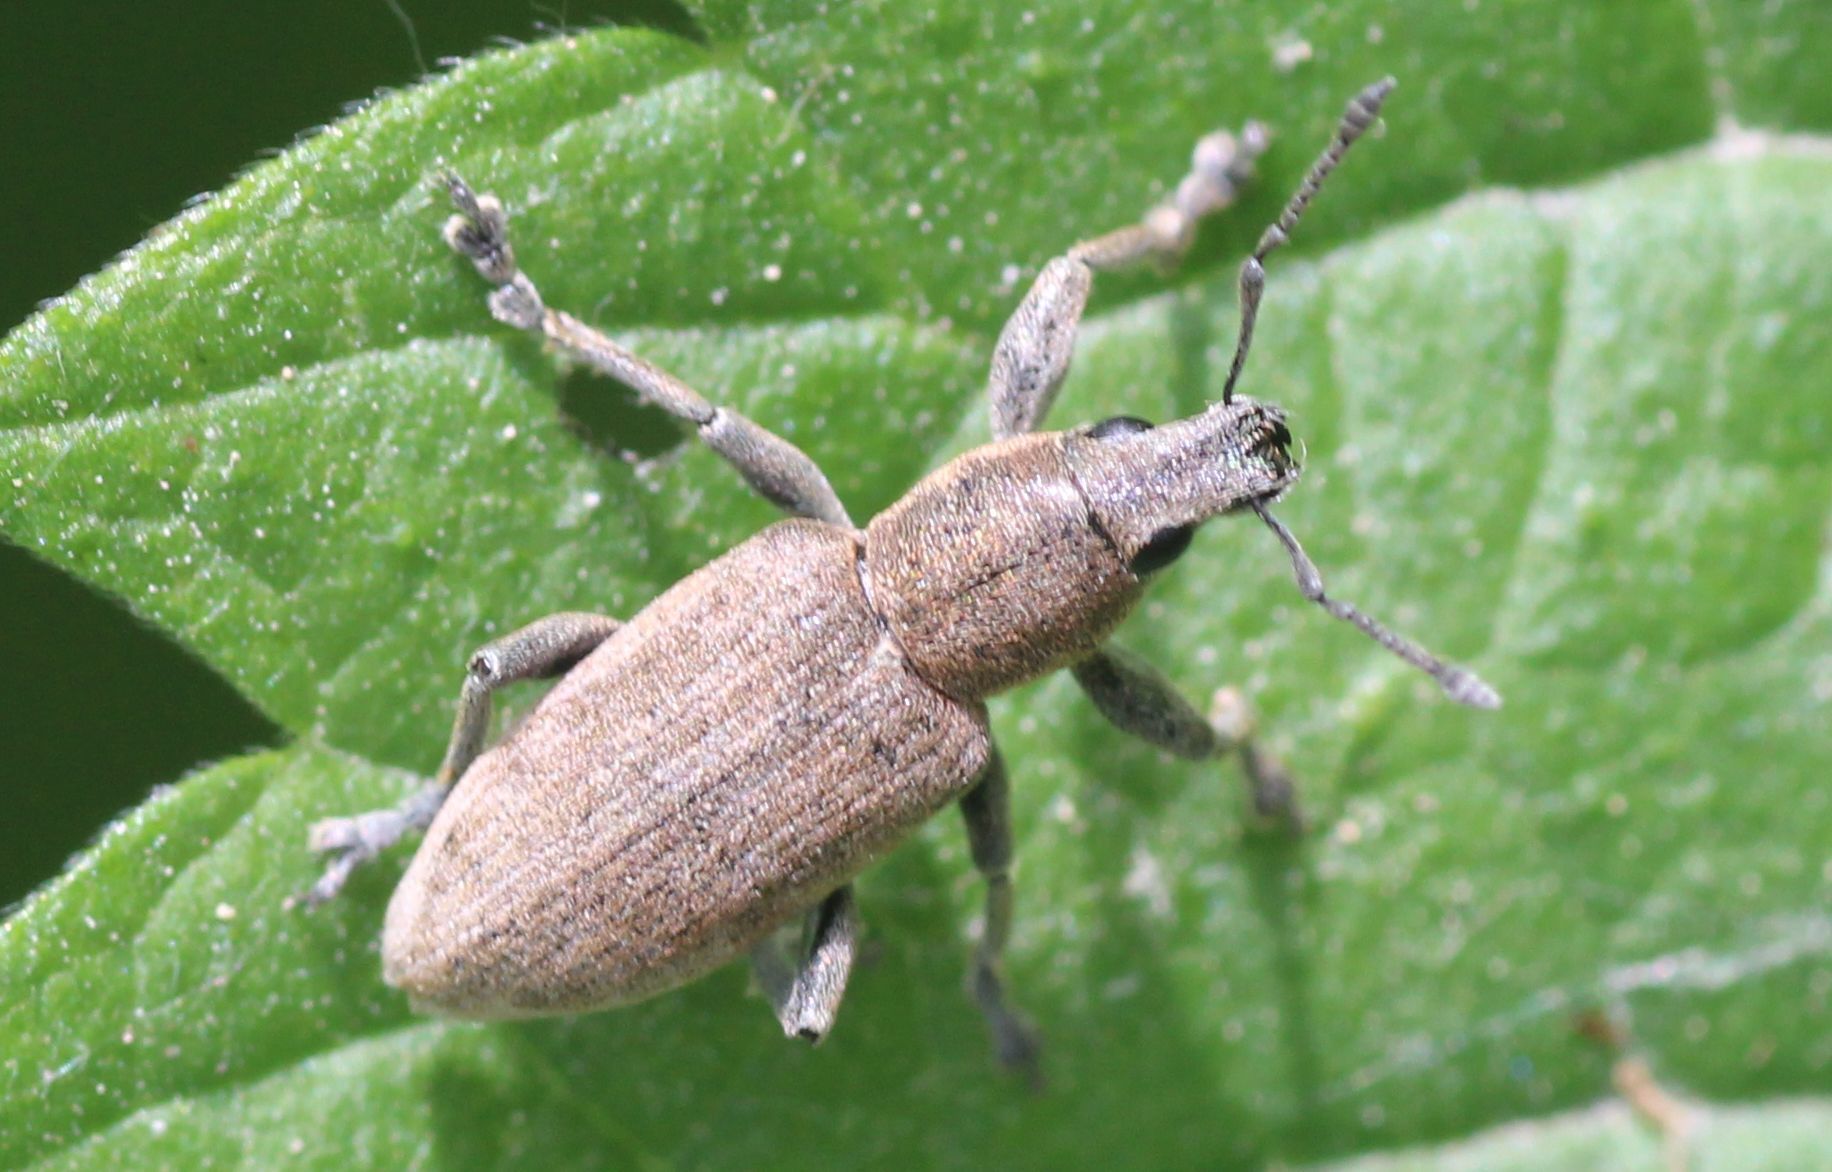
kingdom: Animalia
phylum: Arthropoda
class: Insecta
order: Coleoptera
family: Curculionidae
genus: Tanymecus
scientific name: Tanymecus palliatus
